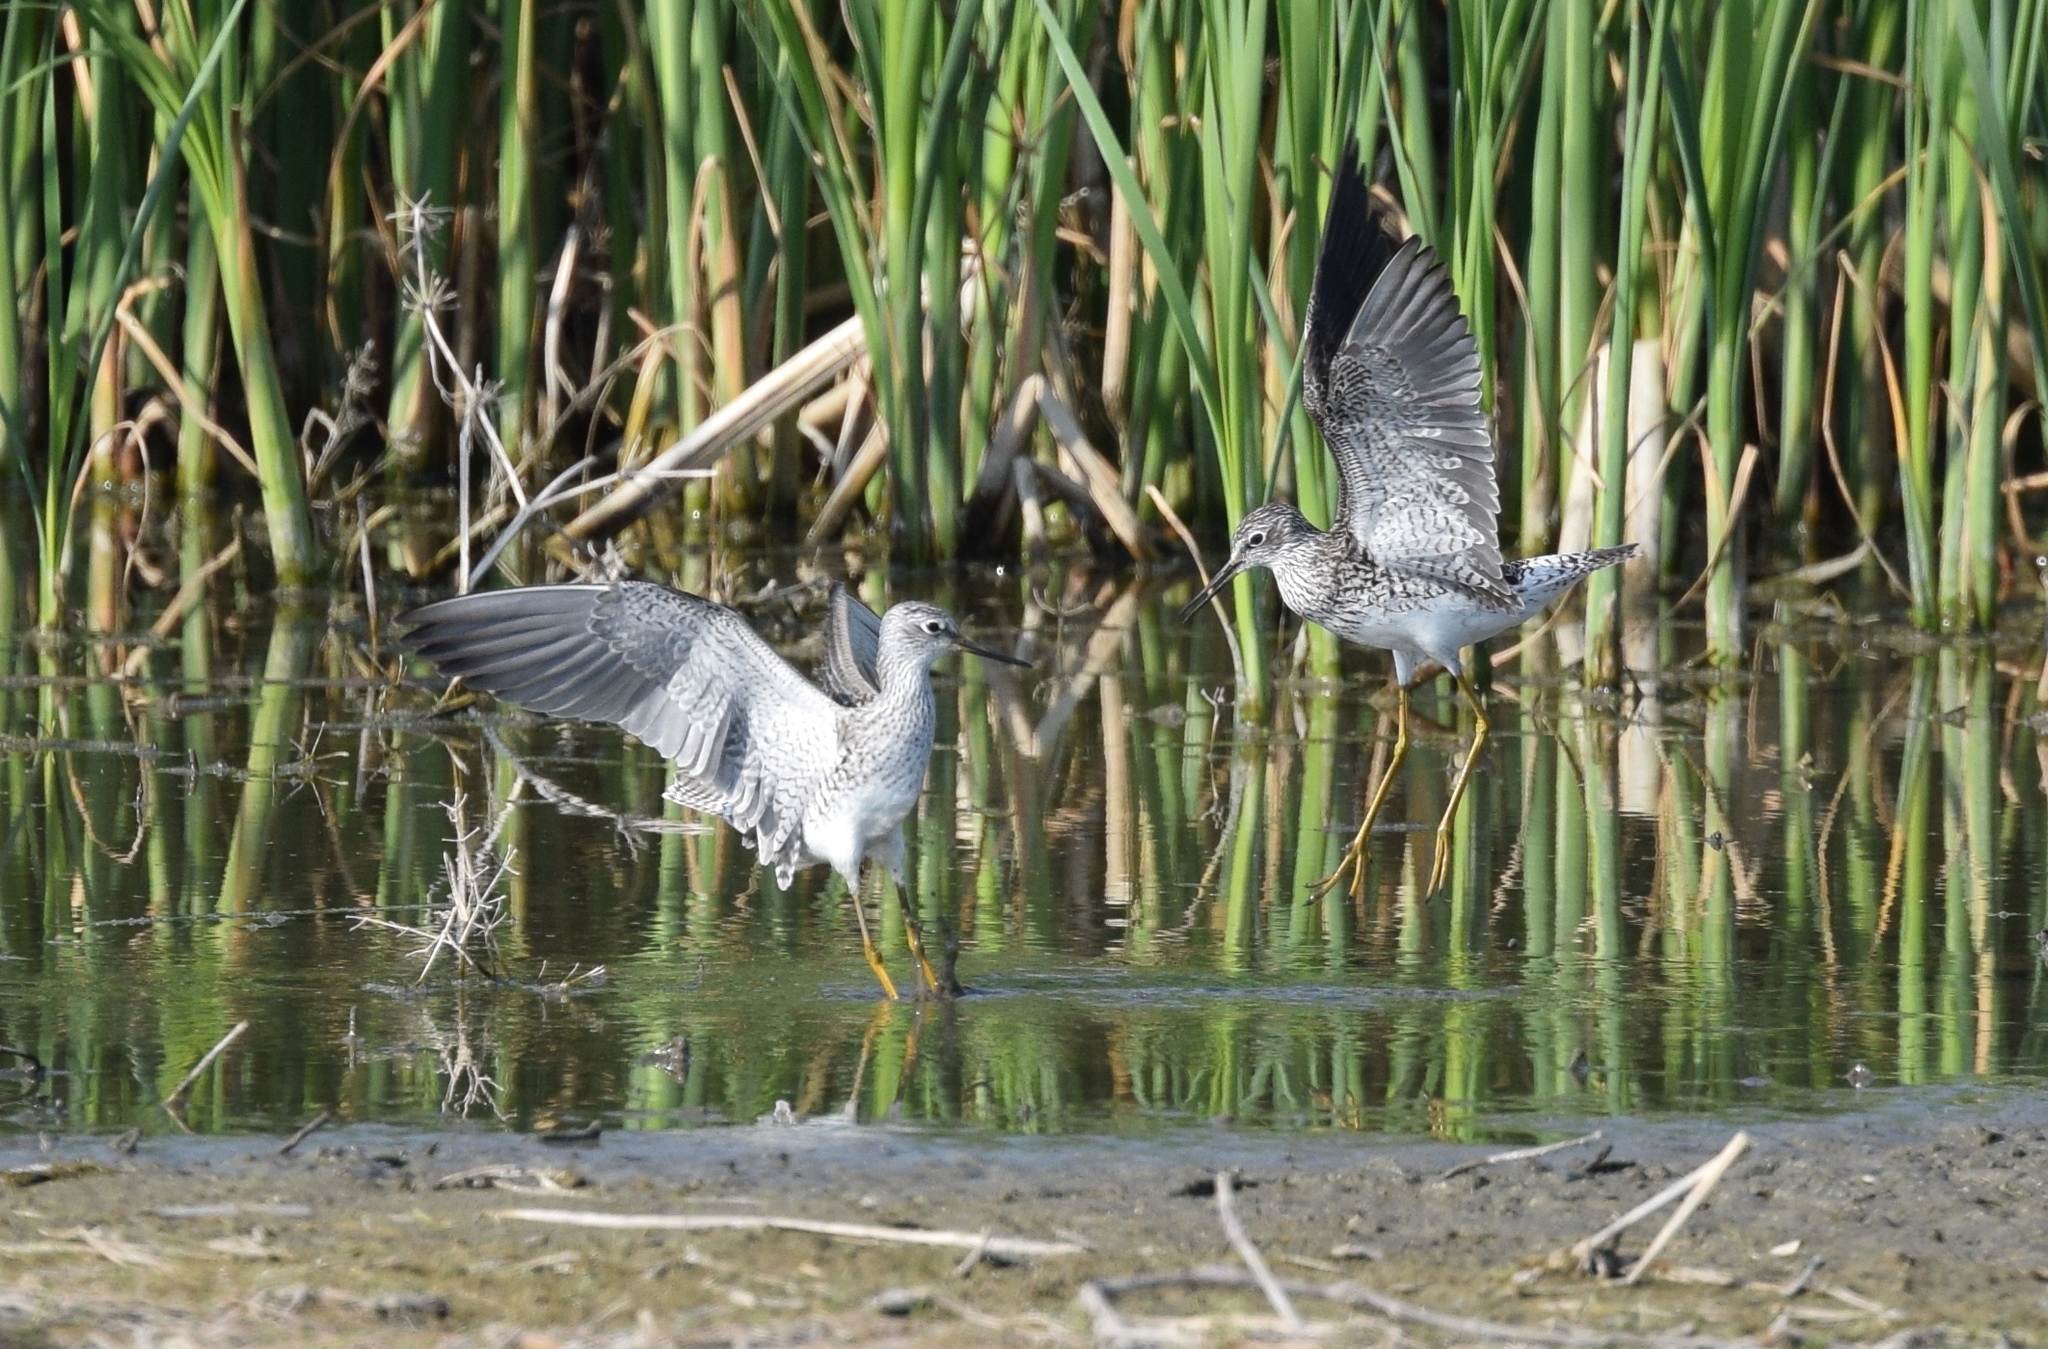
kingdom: Animalia
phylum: Chordata
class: Aves
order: Charadriiformes
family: Scolopacidae
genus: Tringa
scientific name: Tringa flavipes
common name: Lesser yellowlegs
